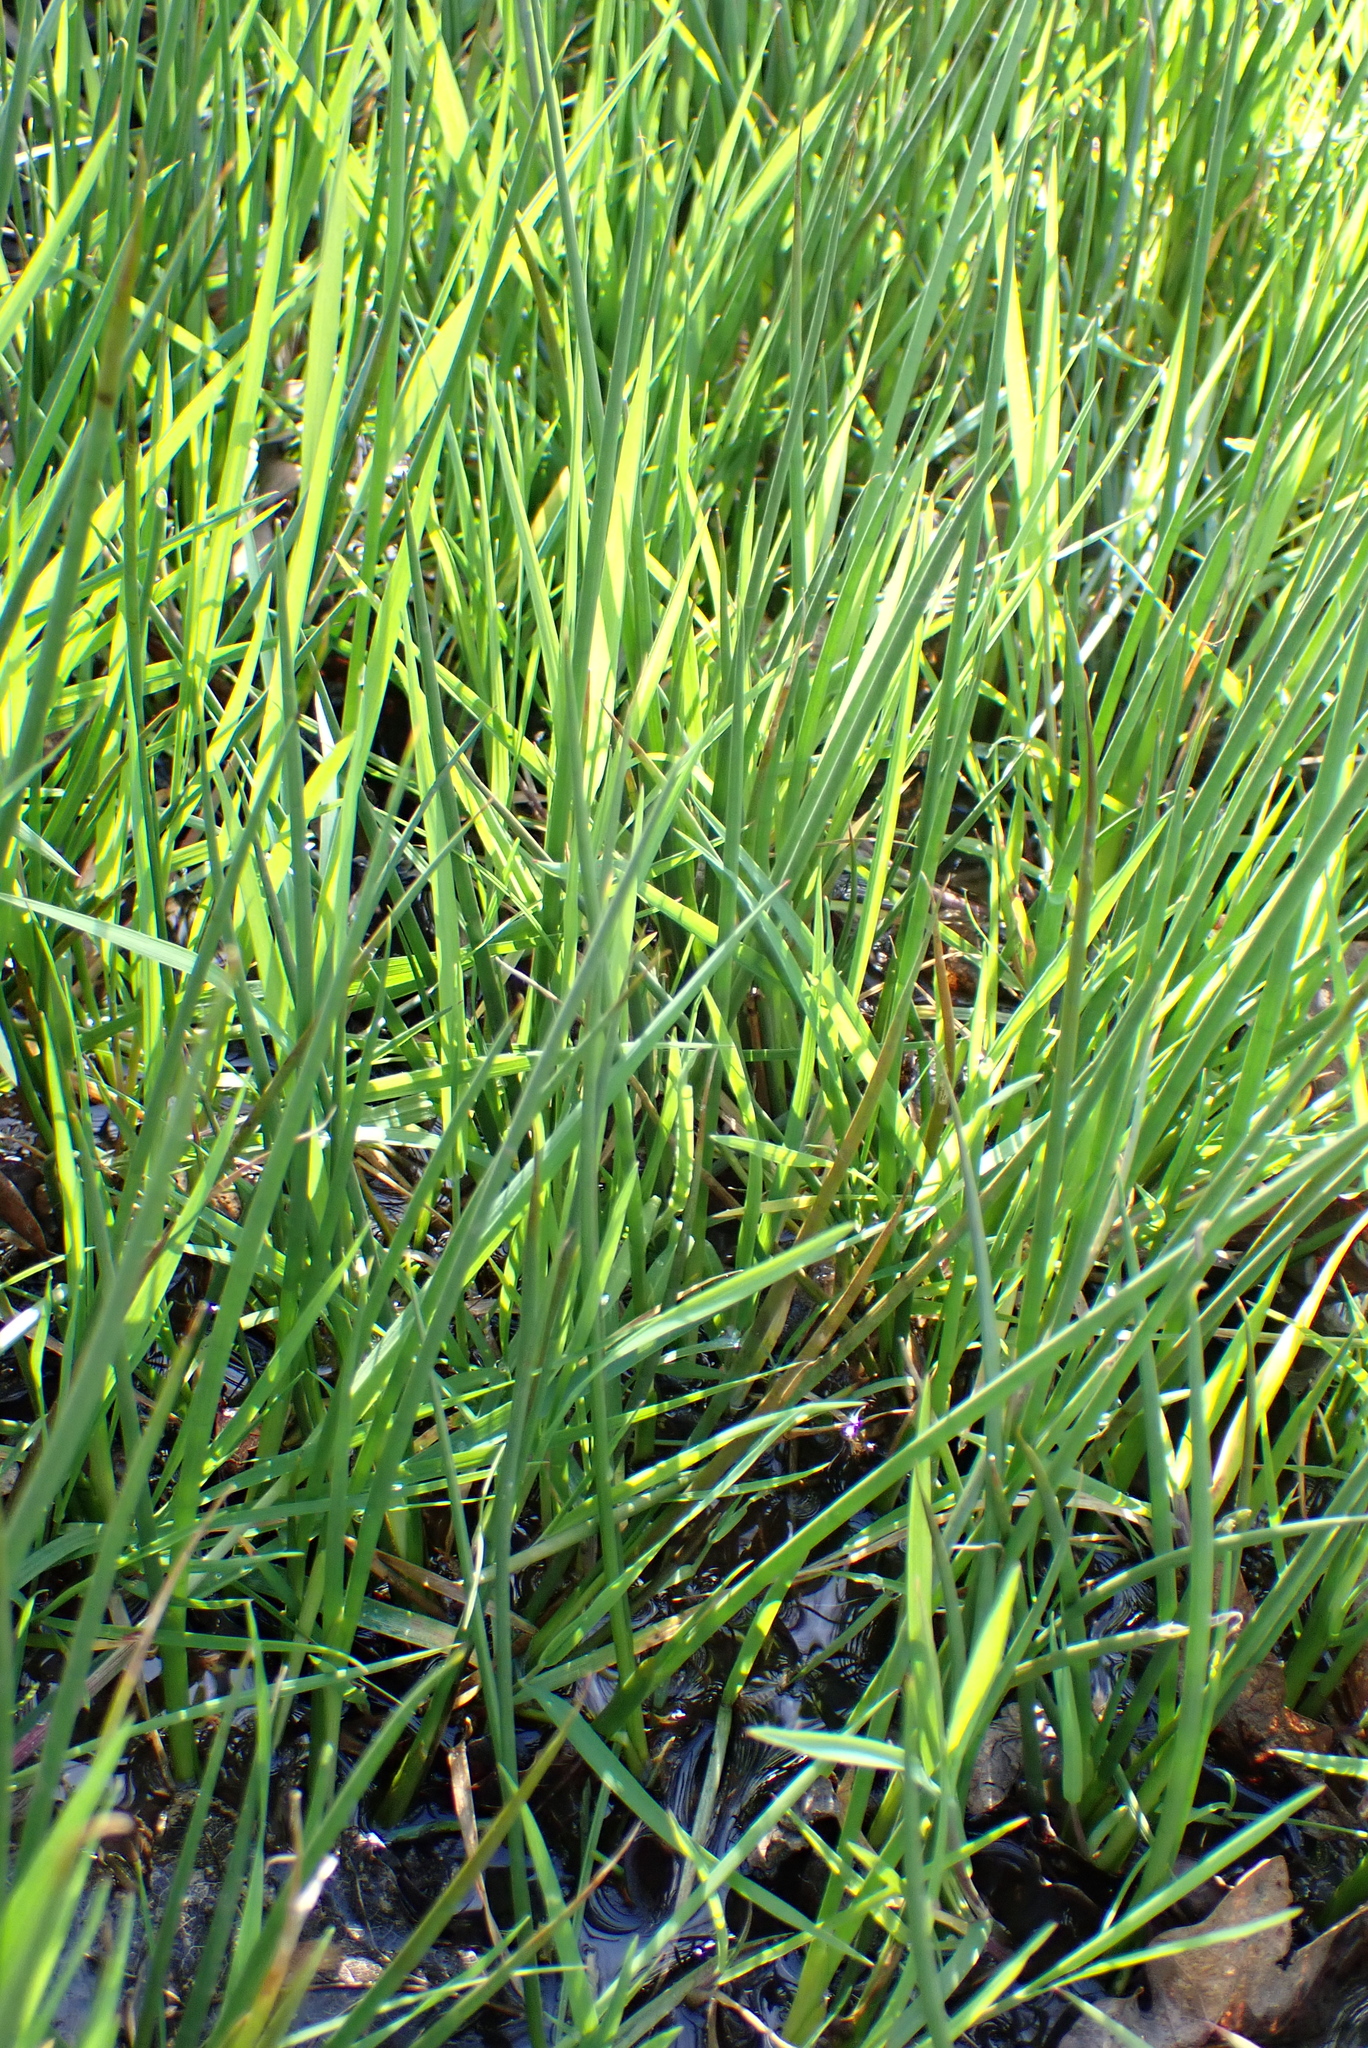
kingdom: Plantae
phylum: Tracheophyta
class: Liliopsida
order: Poales
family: Juncaceae
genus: Juncus
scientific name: Juncus articulatus
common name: Jointed rush
